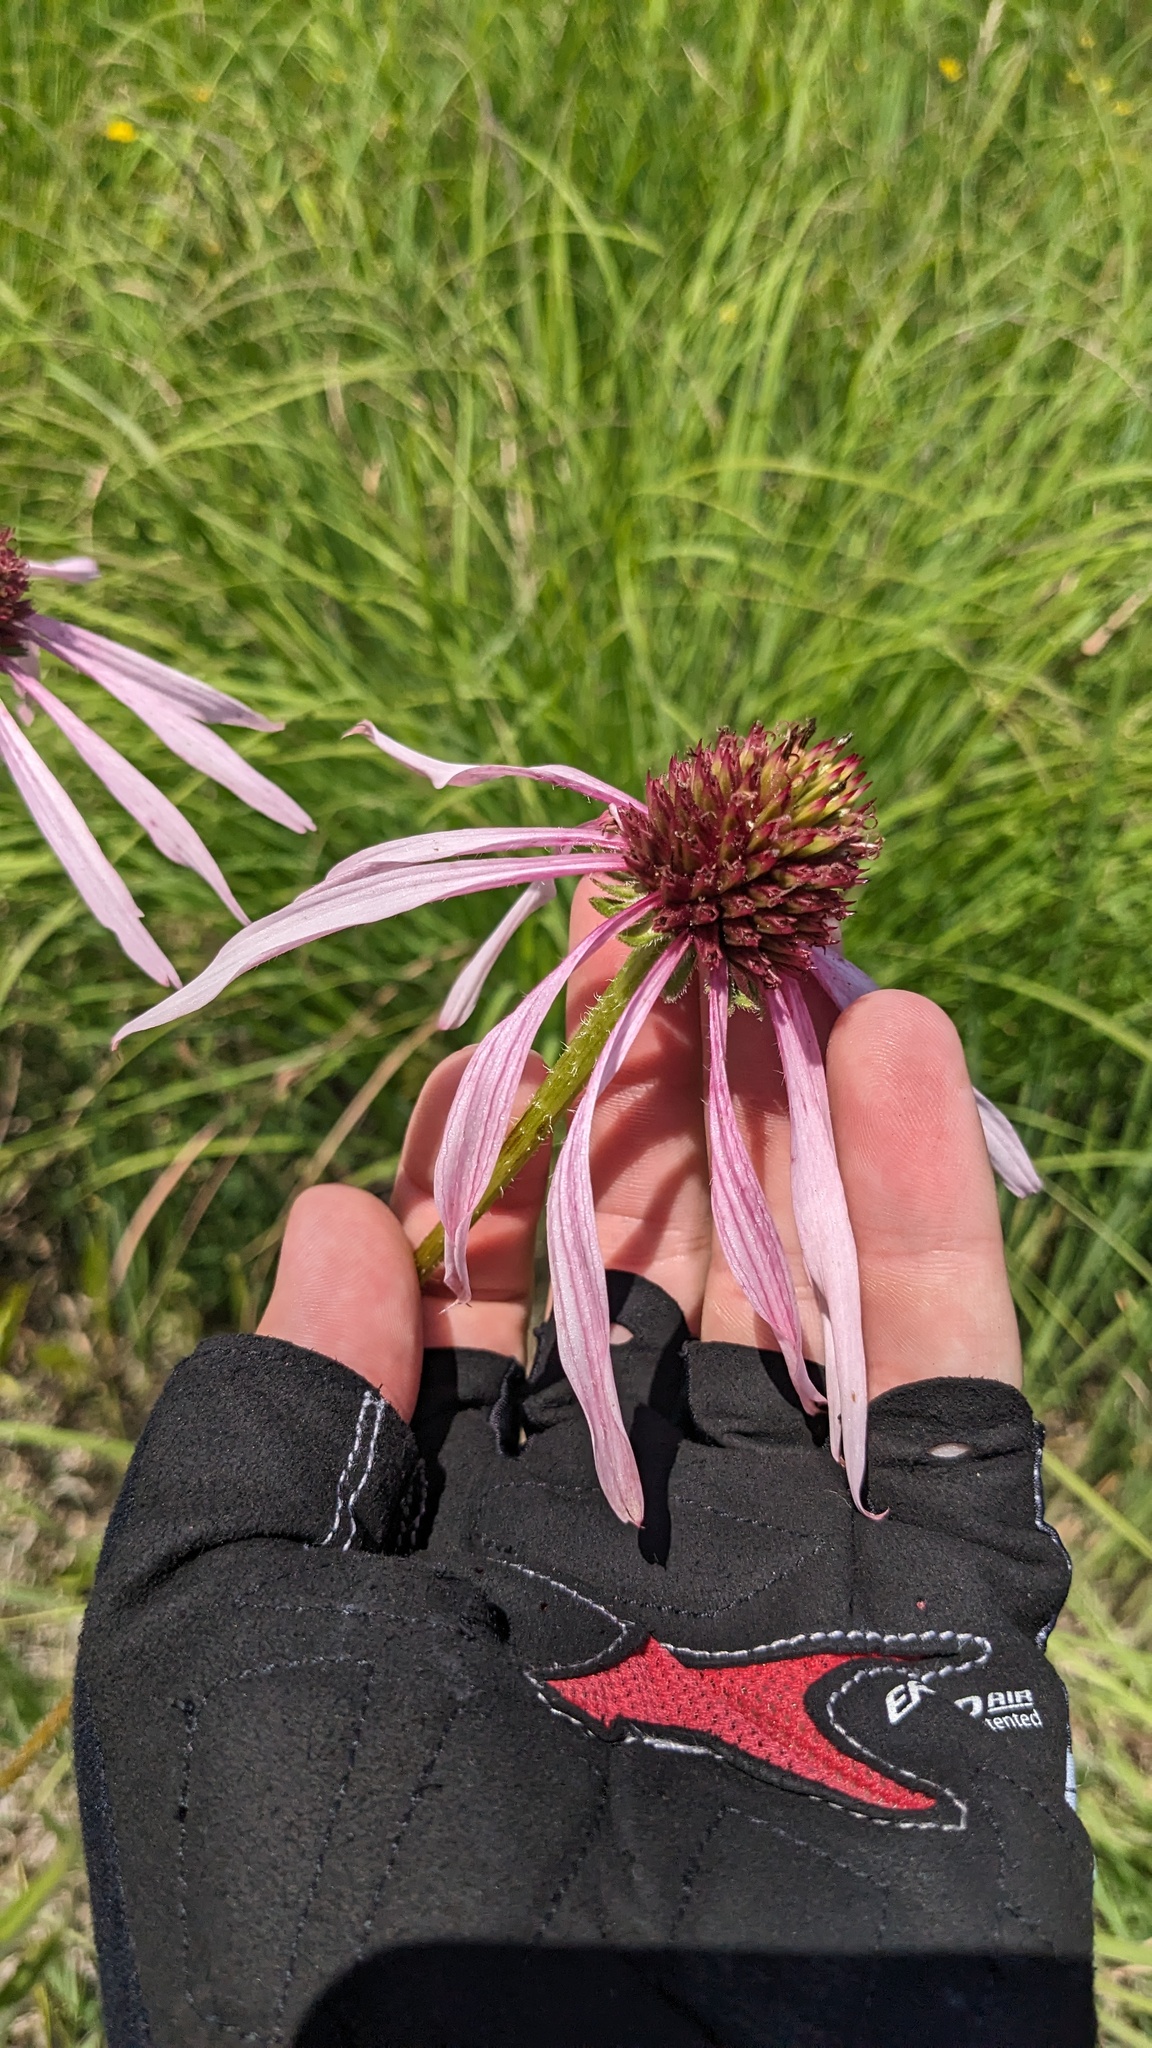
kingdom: Plantae
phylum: Tracheophyta
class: Magnoliopsida
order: Asterales
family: Asteraceae
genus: Echinacea
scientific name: Echinacea pallida
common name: Pale echinacea
